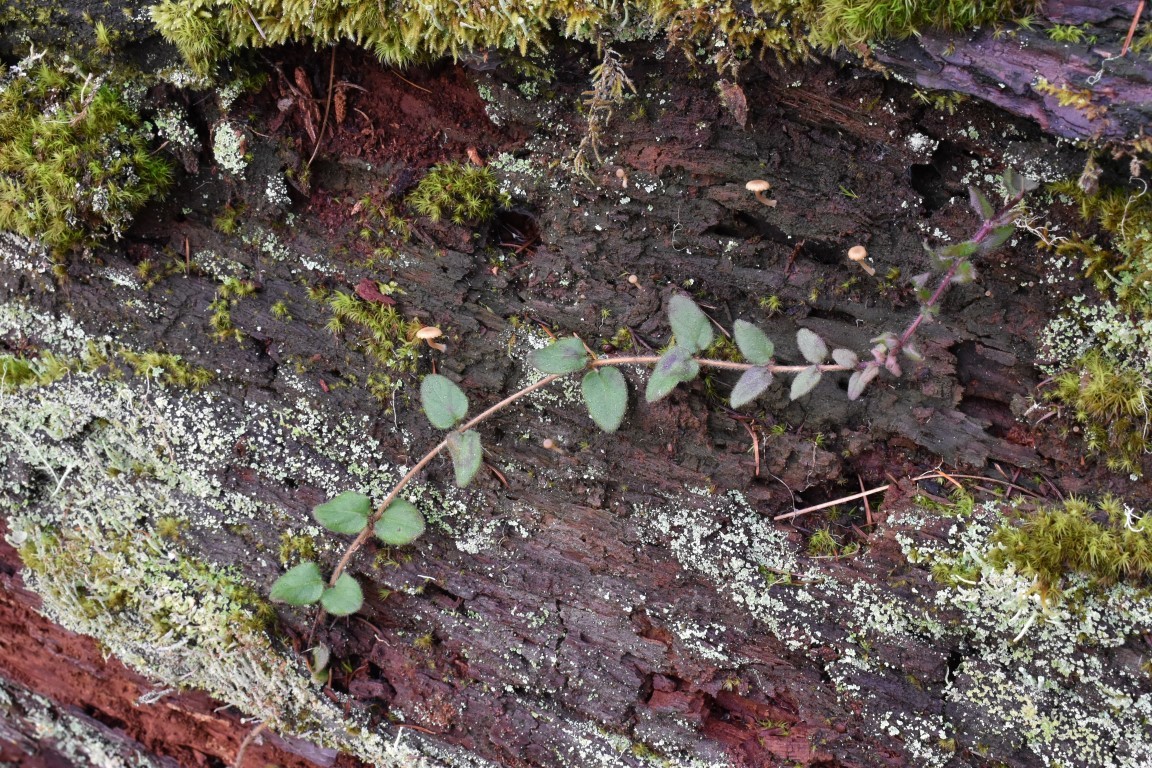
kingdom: Plantae
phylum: Tracheophyta
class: Magnoliopsida
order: Dipsacales
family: Caprifoliaceae
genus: Lonicera
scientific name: Lonicera hispidula
